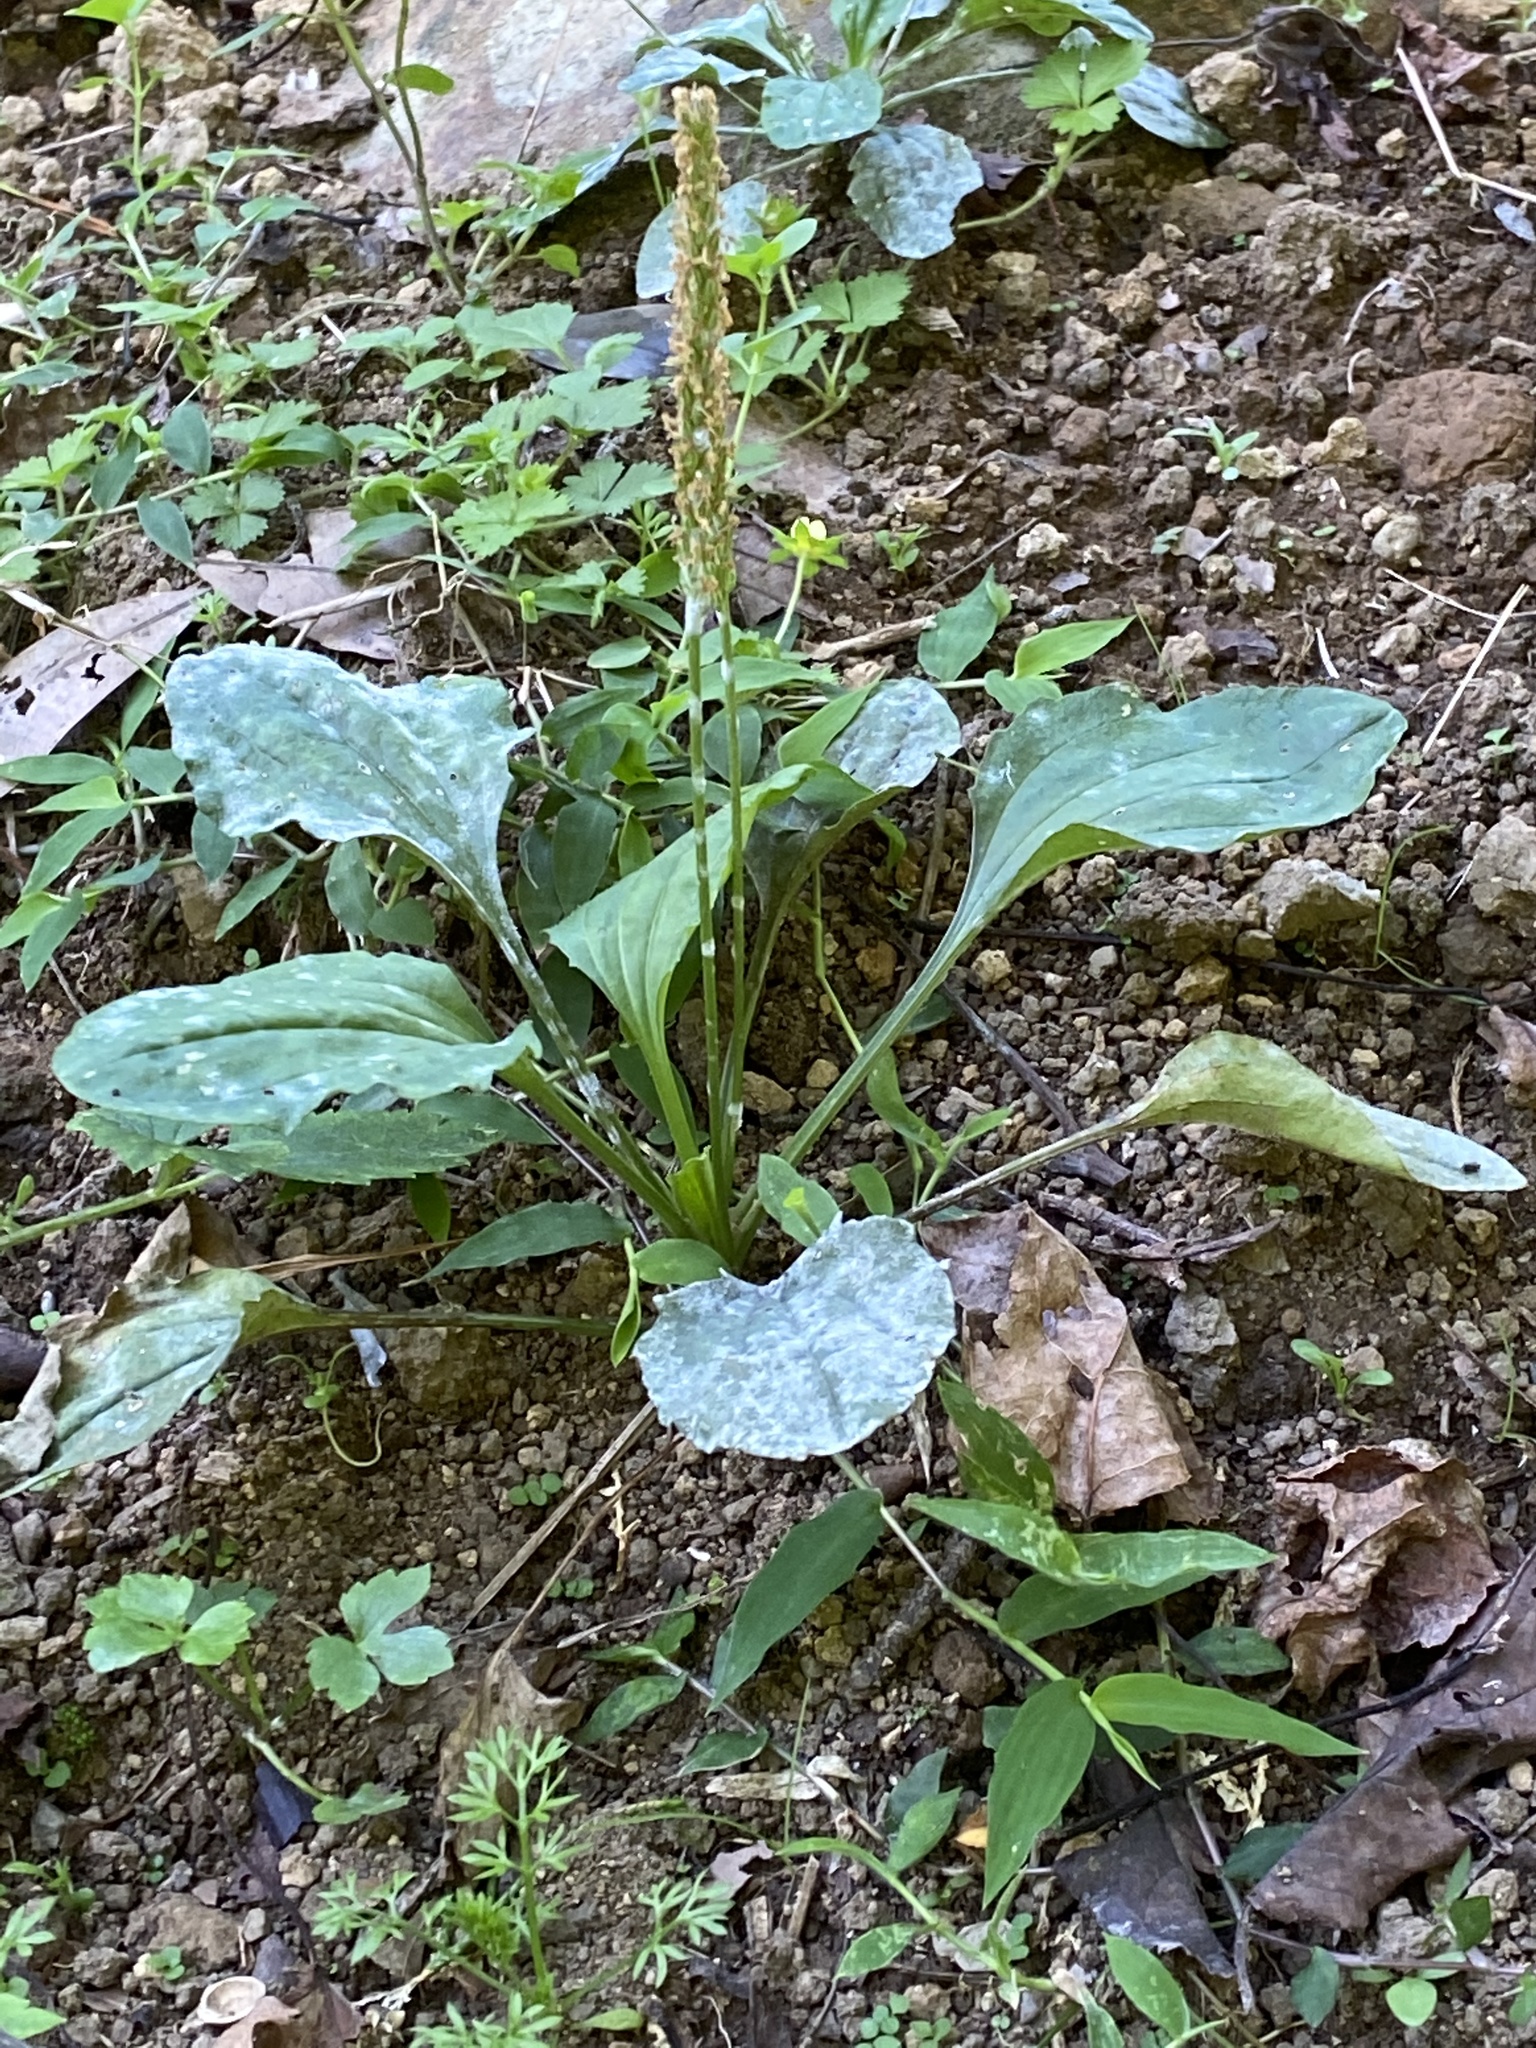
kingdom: Plantae
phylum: Tracheophyta
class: Magnoliopsida
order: Lamiales
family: Plantaginaceae
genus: Plantago
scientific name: Plantago asiatica
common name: Psyllium
